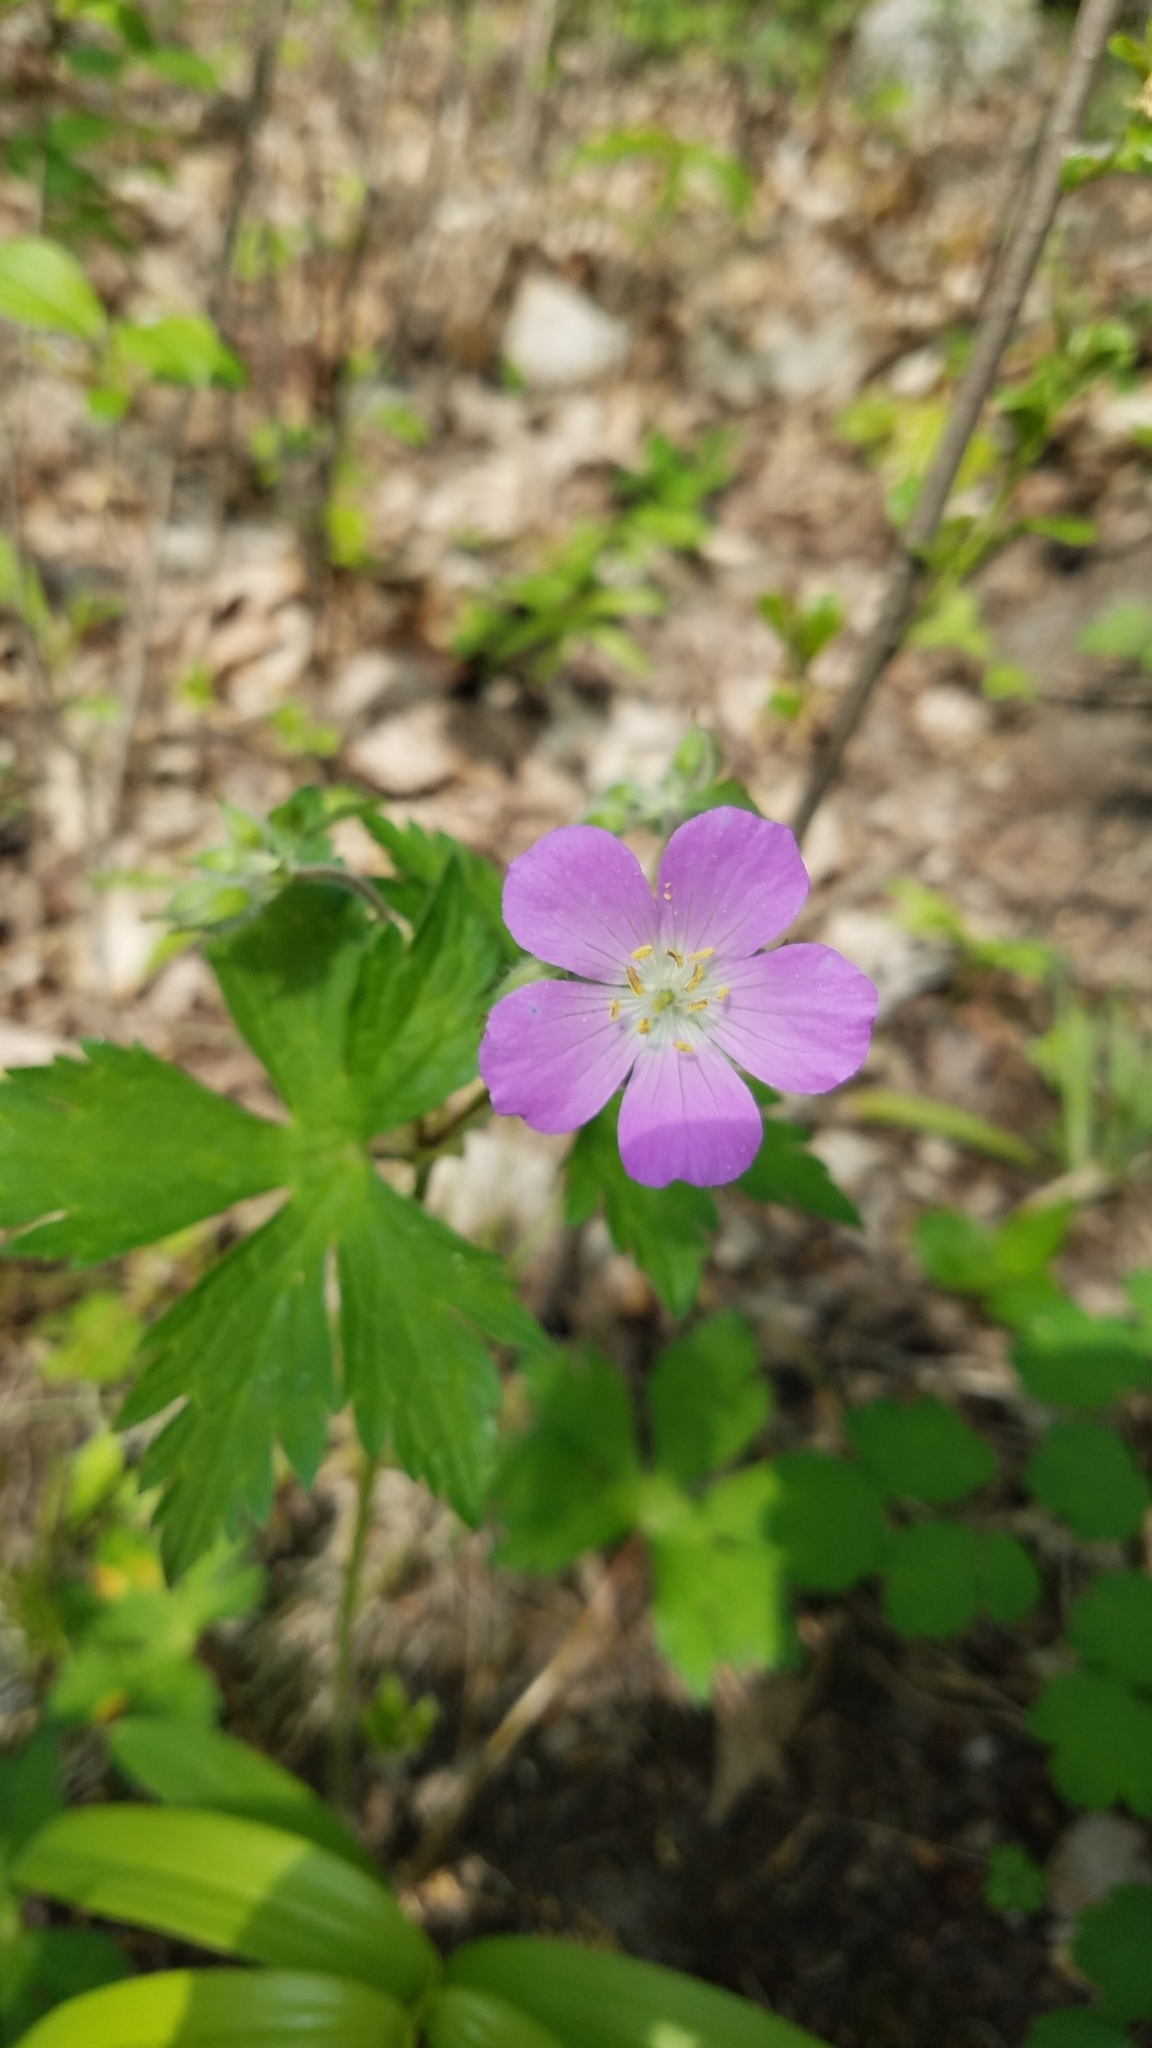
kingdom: Plantae
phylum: Tracheophyta
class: Magnoliopsida
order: Geraniales
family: Geraniaceae
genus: Geranium
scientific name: Geranium maculatum
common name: Spotted geranium
